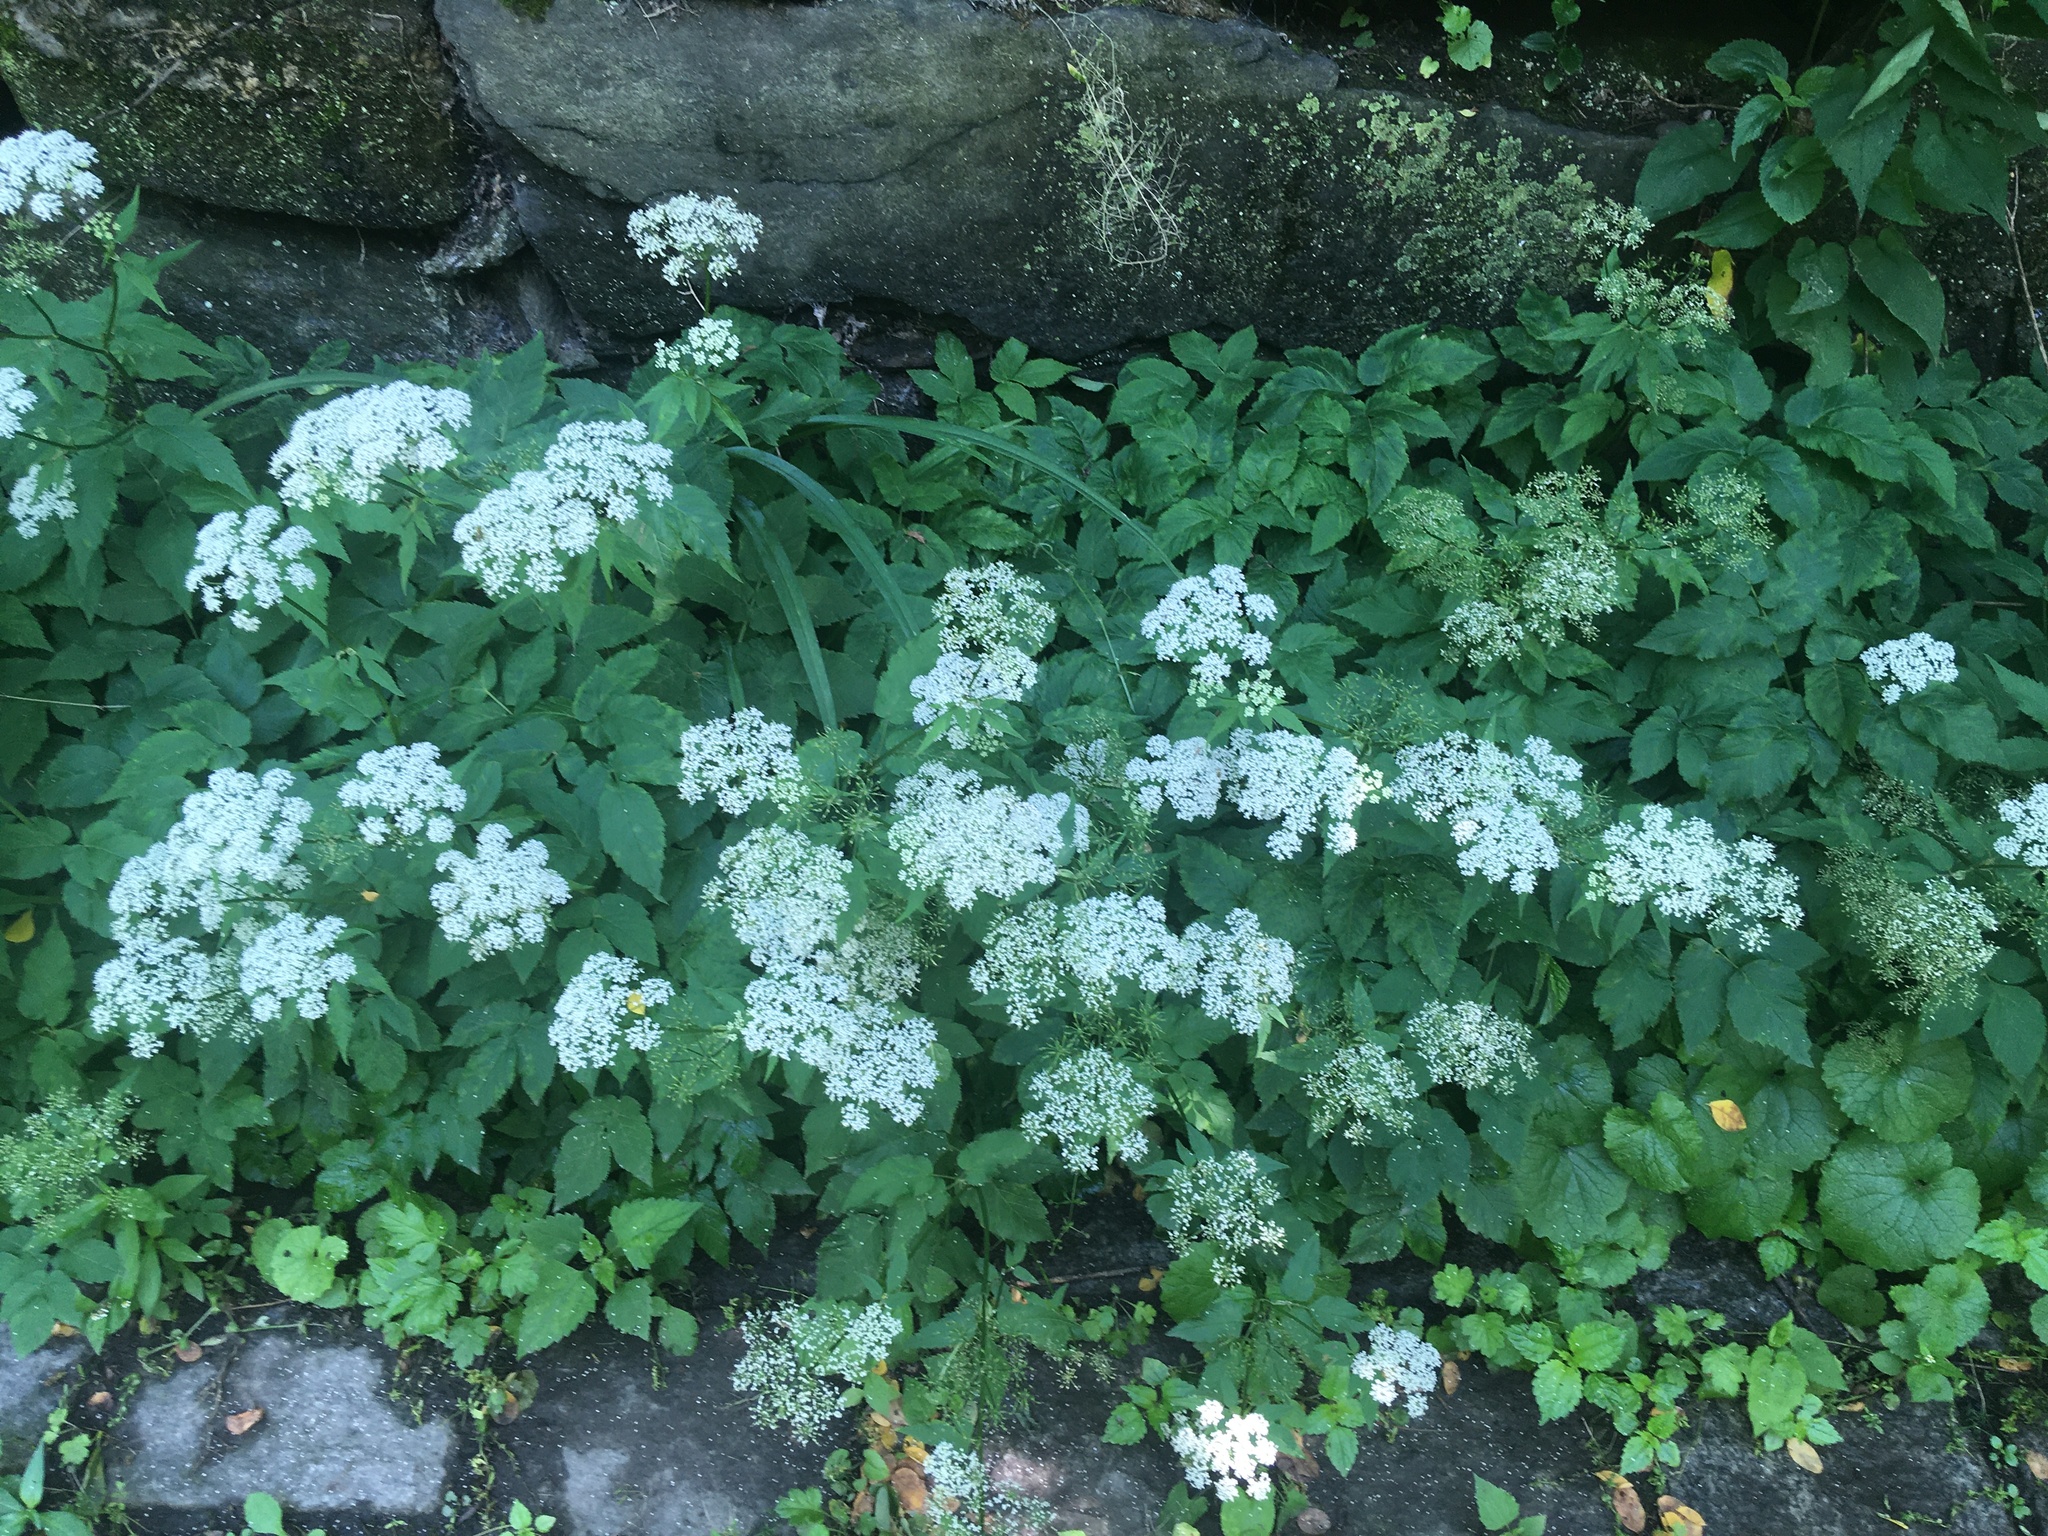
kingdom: Plantae
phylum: Tracheophyta
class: Magnoliopsida
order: Apiales
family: Apiaceae
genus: Aegopodium
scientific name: Aegopodium podagraria
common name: Ground-elder
